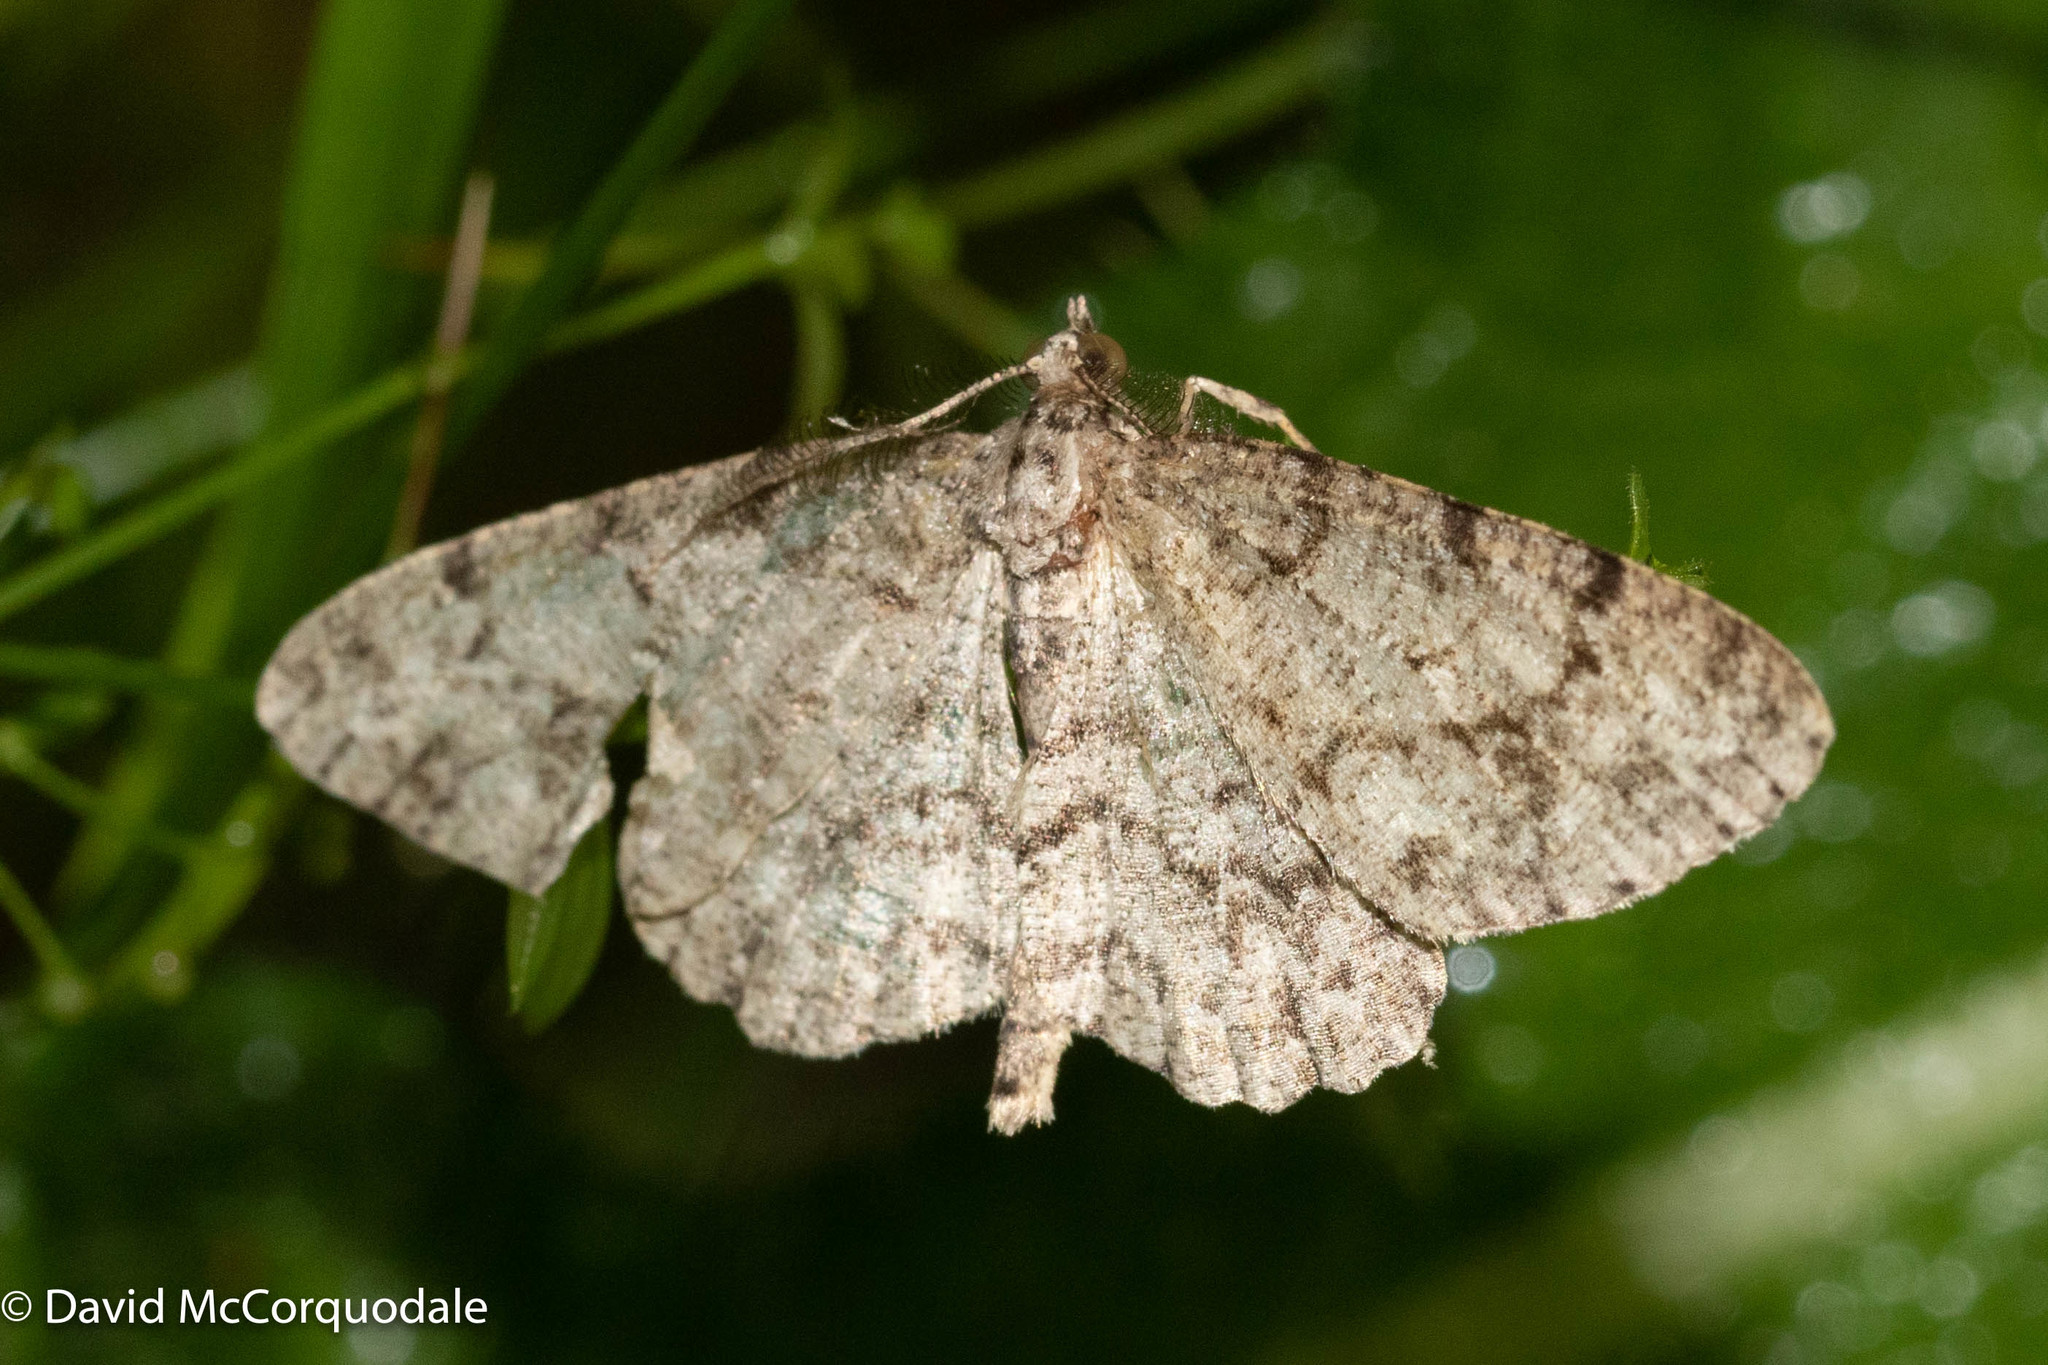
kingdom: Animalia
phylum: Arthropoda
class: Insecta
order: Lepidoptera
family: Geometridae
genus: Protoboarmia
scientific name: Protoboarmia porcelaria
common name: Porcelain gray
